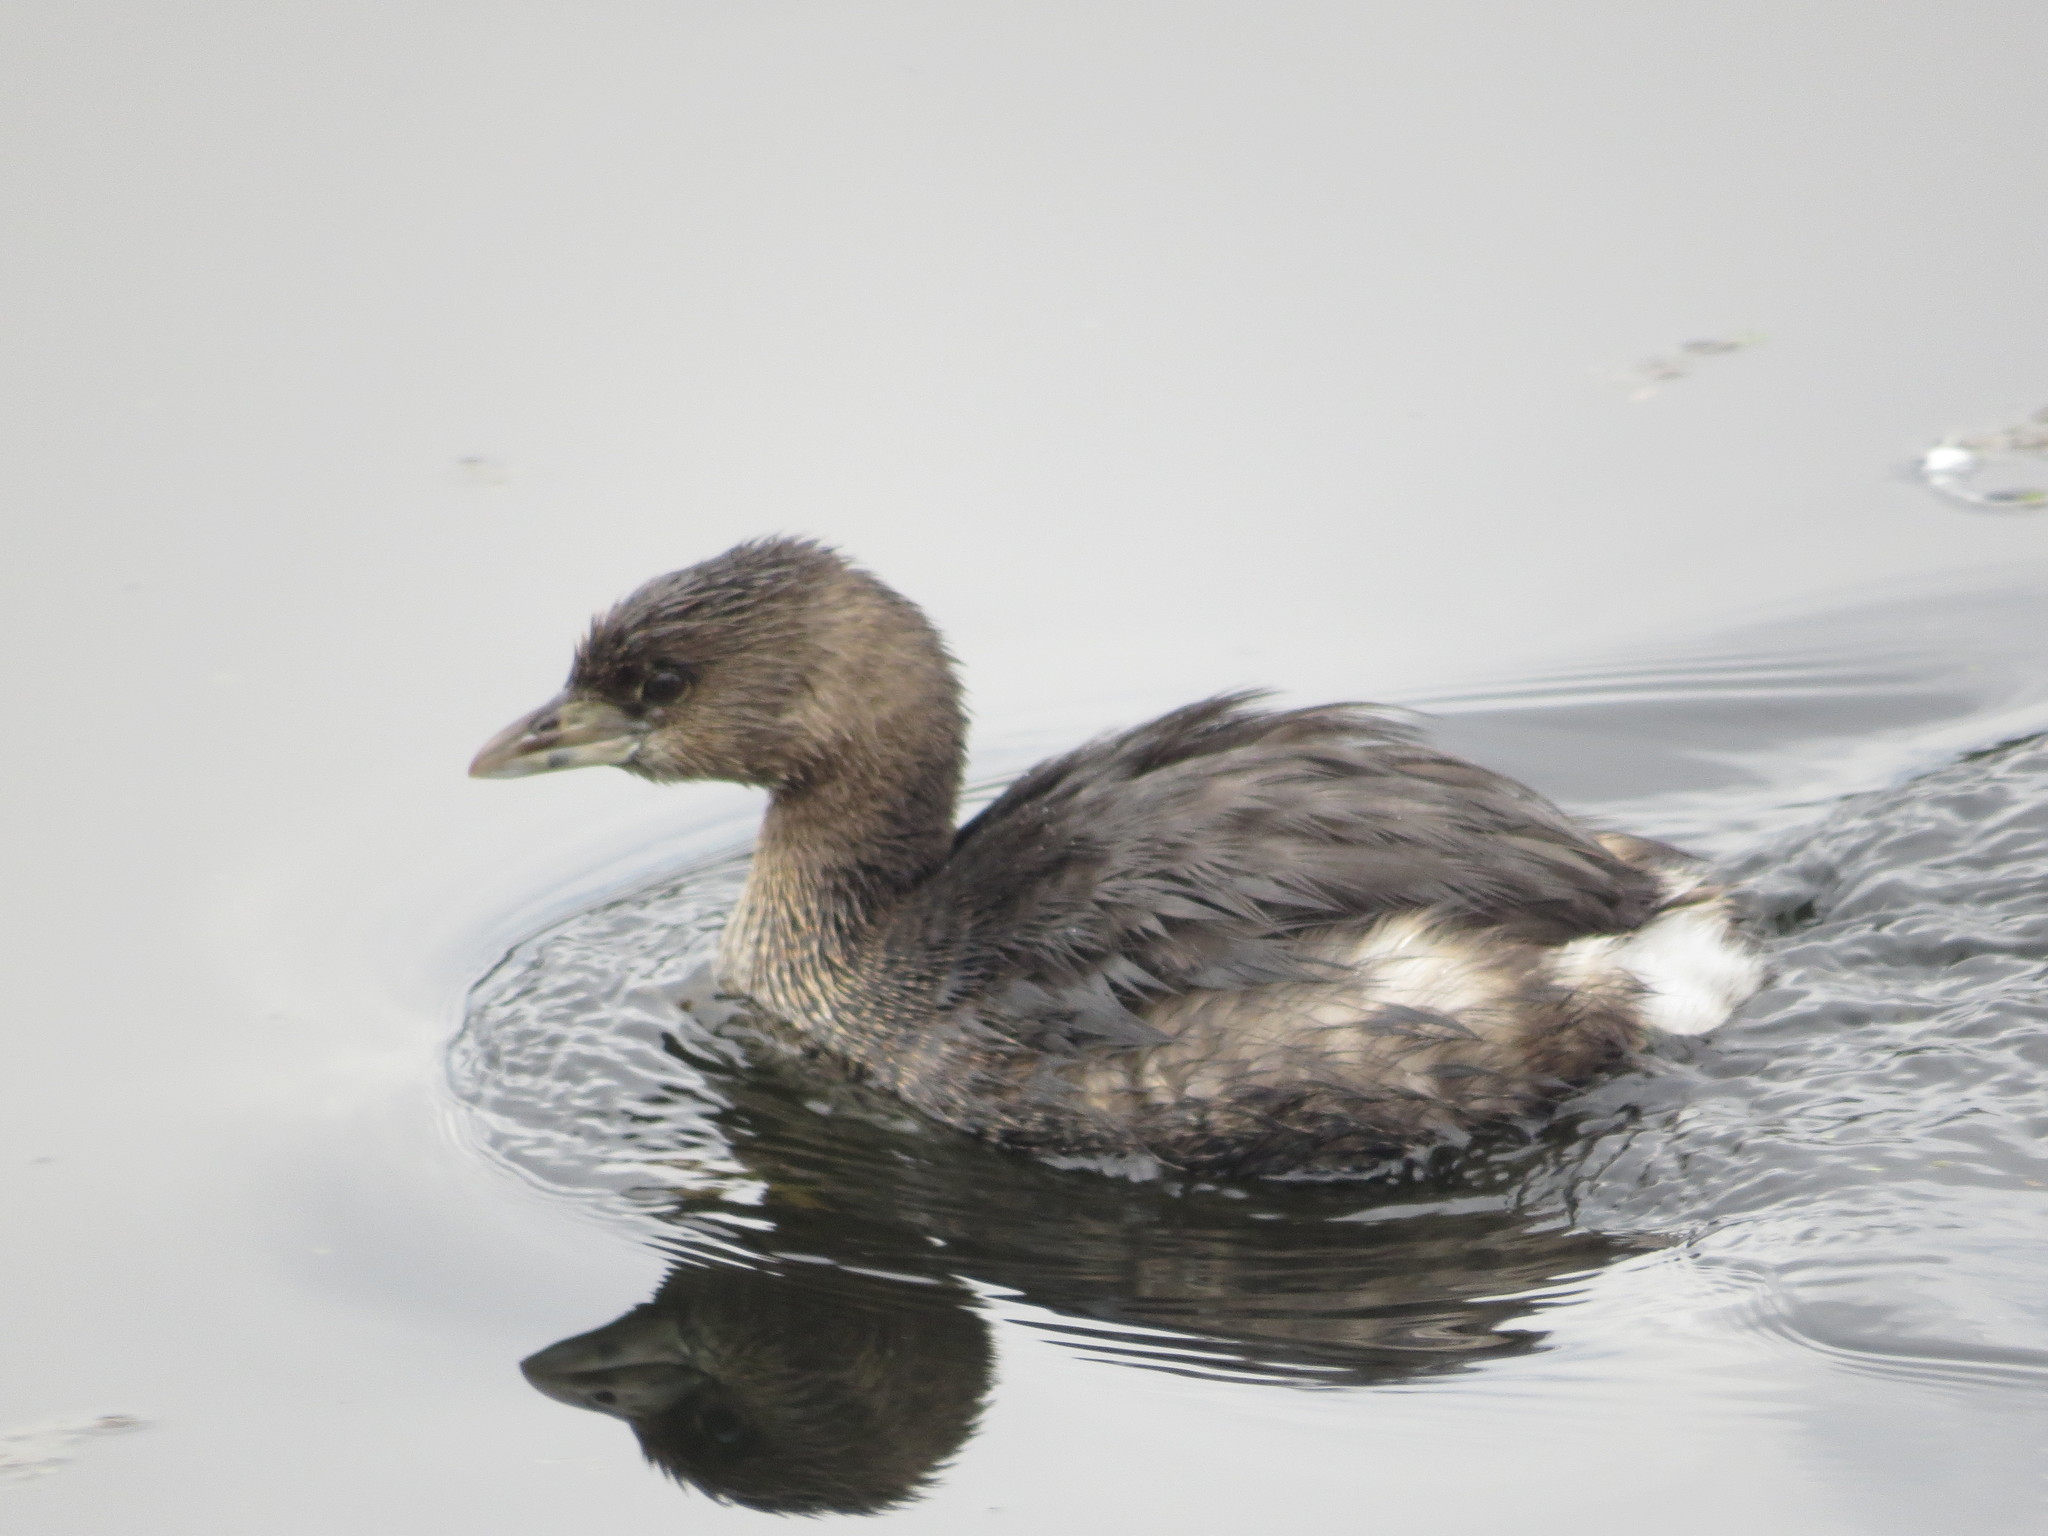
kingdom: Animalia
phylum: Chordata
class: Aves
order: Podicipediformes
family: Podicipedidae
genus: Podilymbus
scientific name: Podilymbus podiceps
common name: Pied-billed grebe
